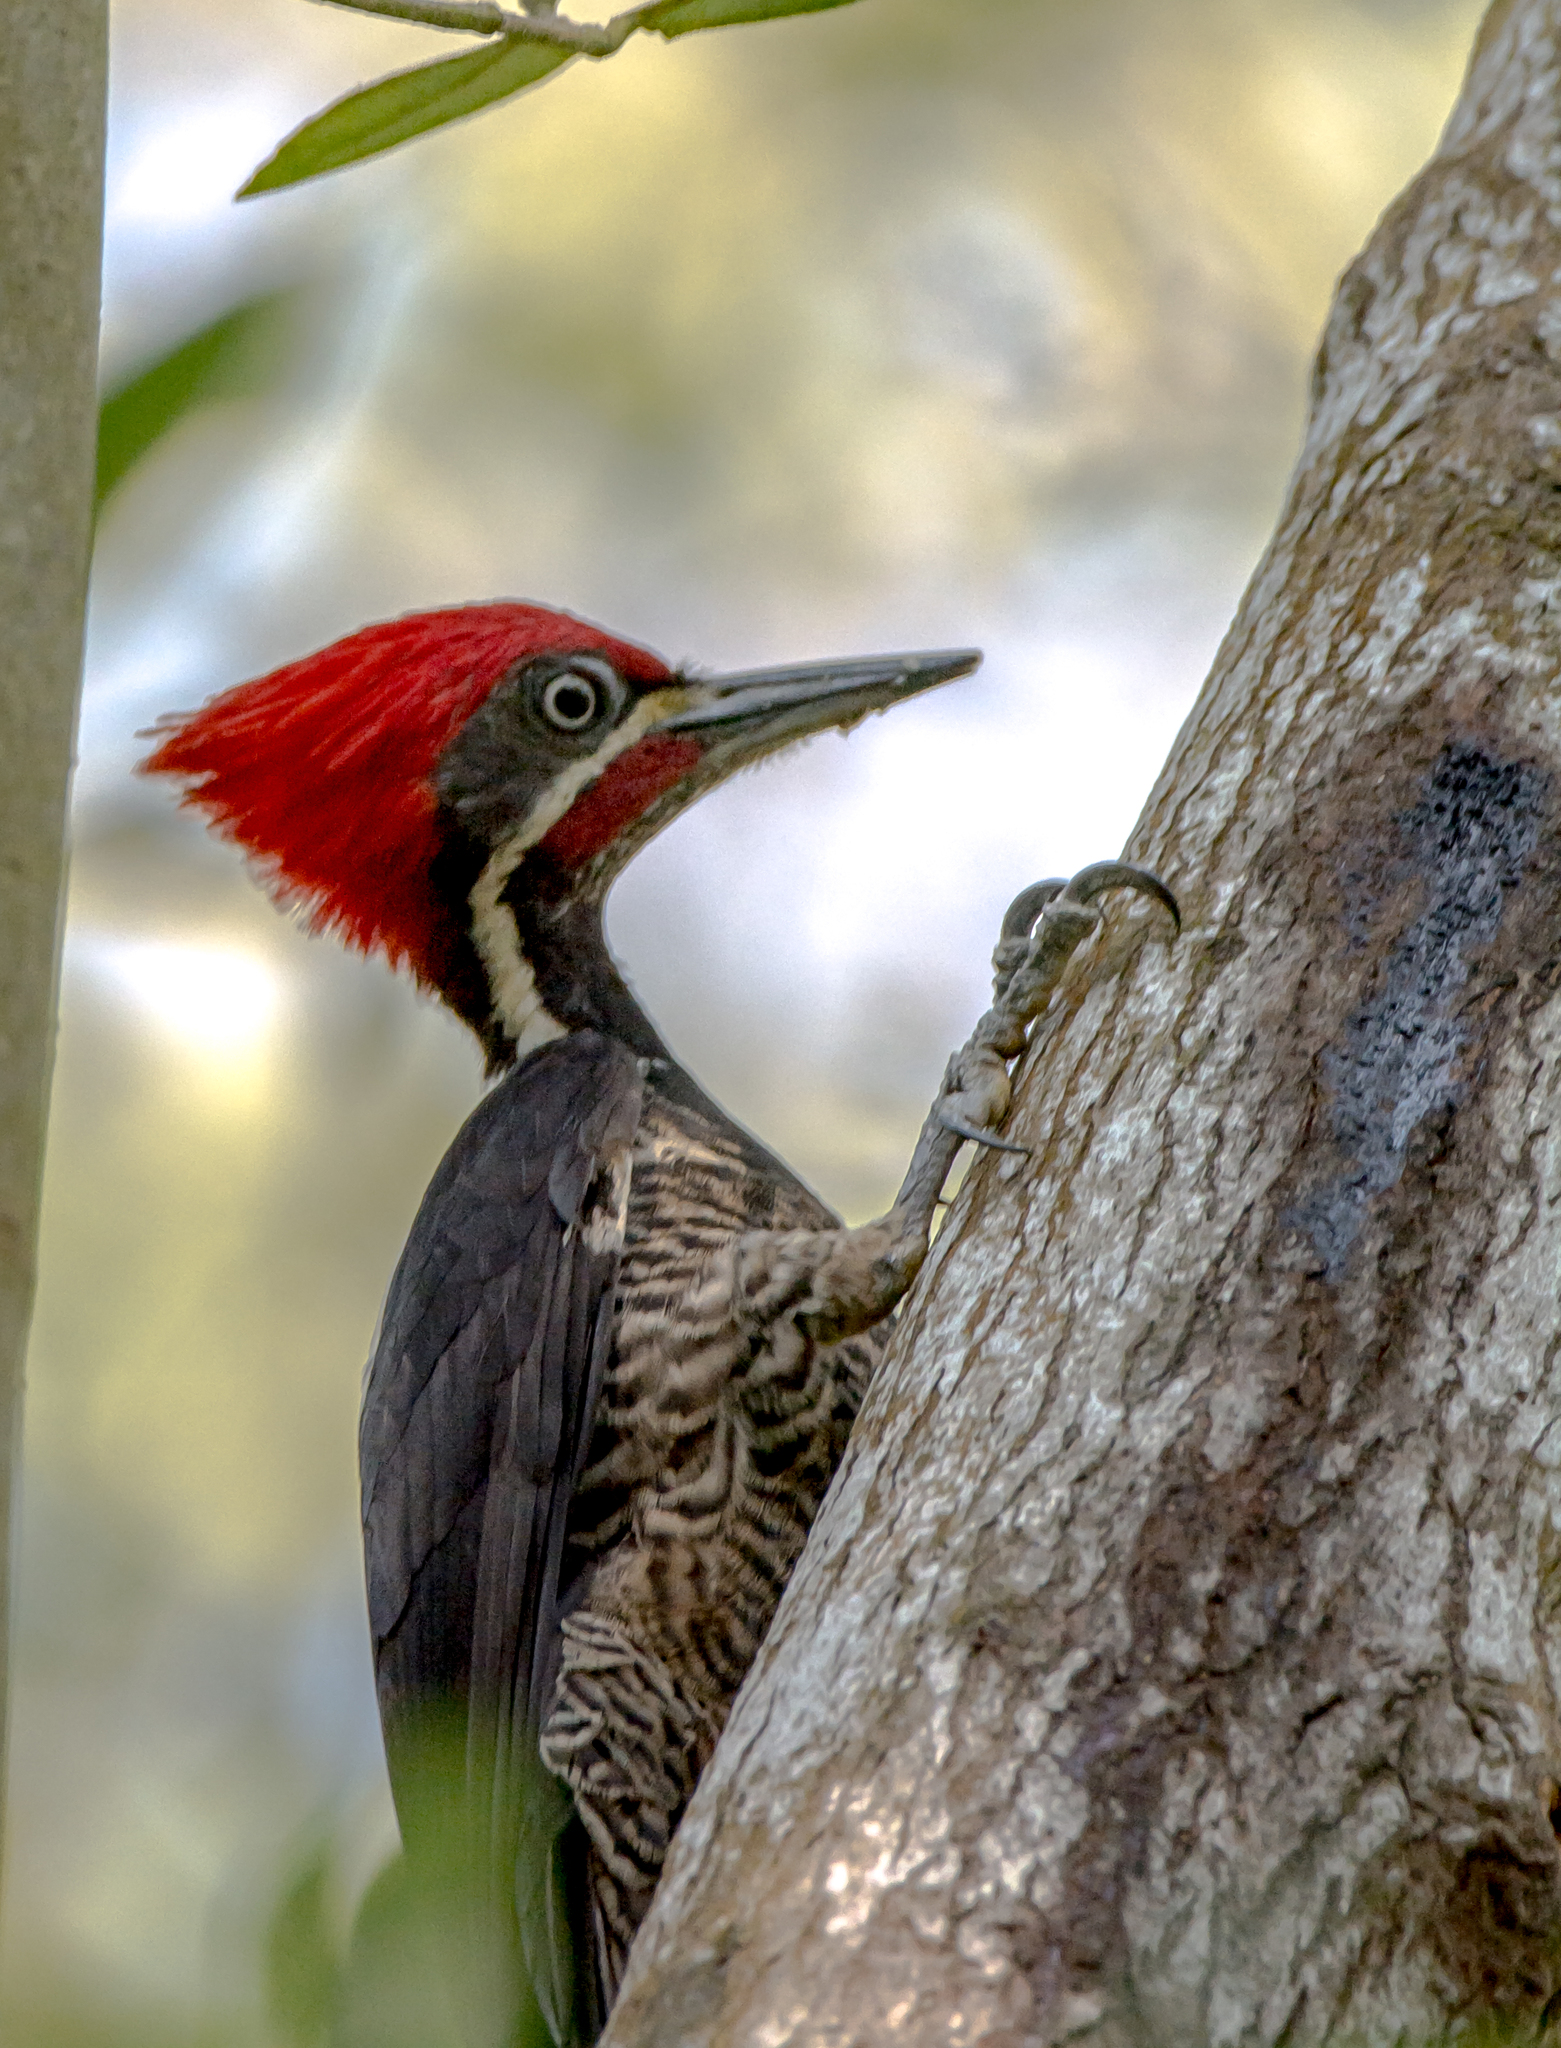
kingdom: Animalia
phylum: Chordata
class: Aves
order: Piciformes
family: Picidae
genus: Dryocopus
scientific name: Dryocopus lineatus
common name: Lineated woodpecker
